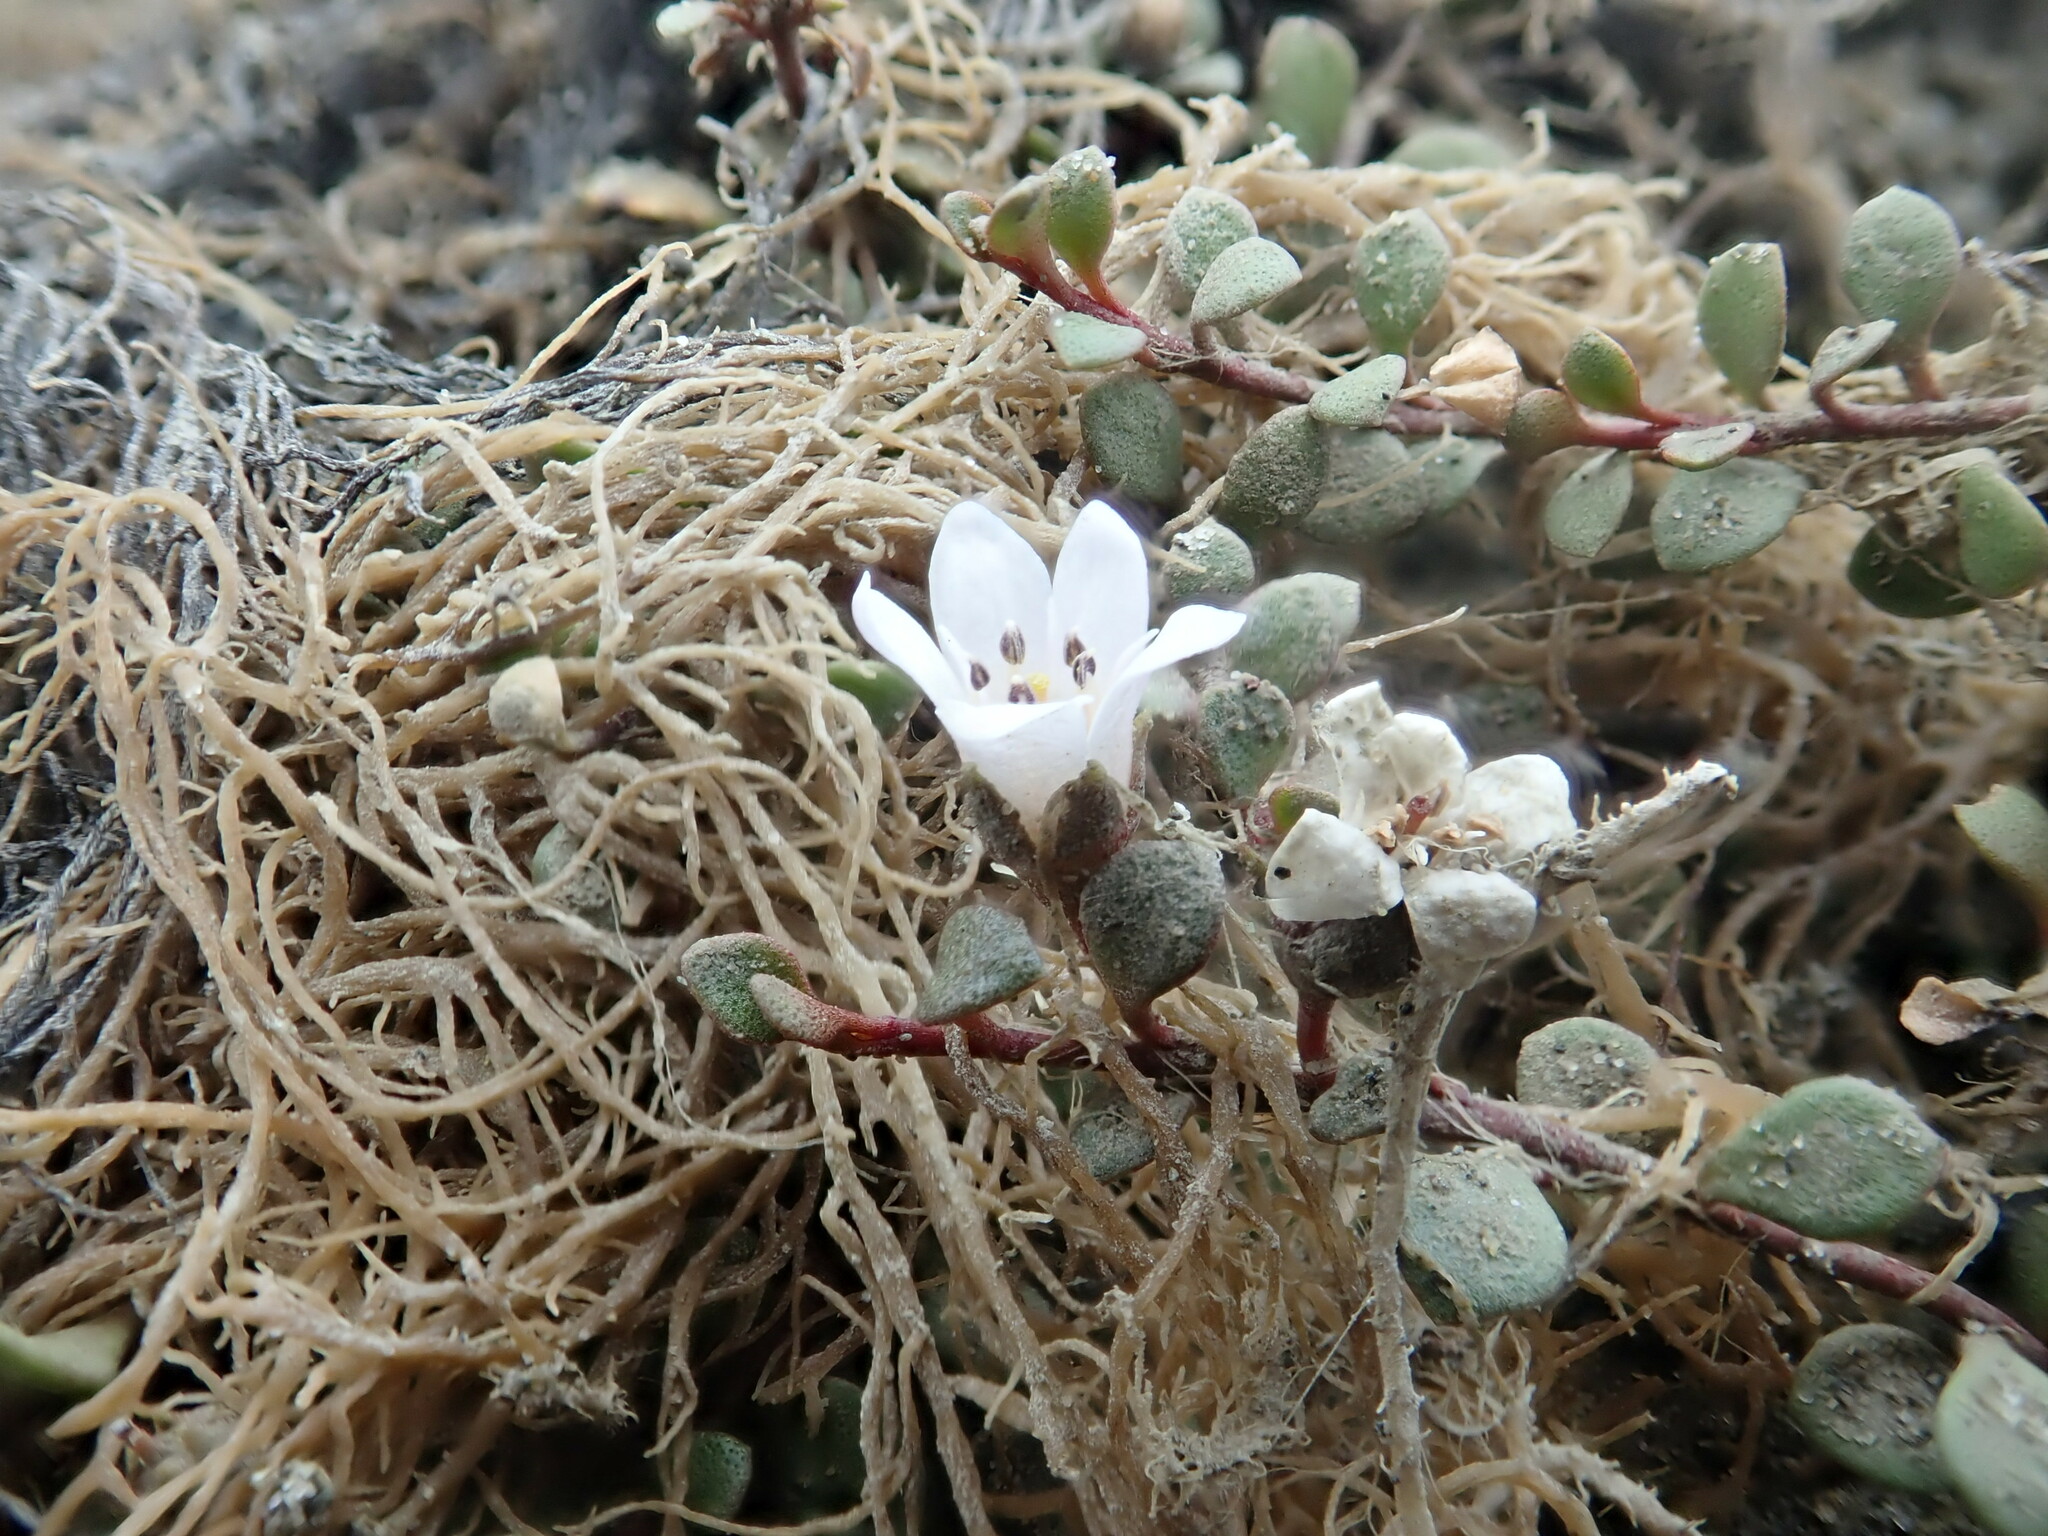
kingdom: Plantae
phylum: Tracheophyta
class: Magnoliopsida
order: Ericales
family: Primulaceae
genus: Samolus
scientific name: Samolus repens
